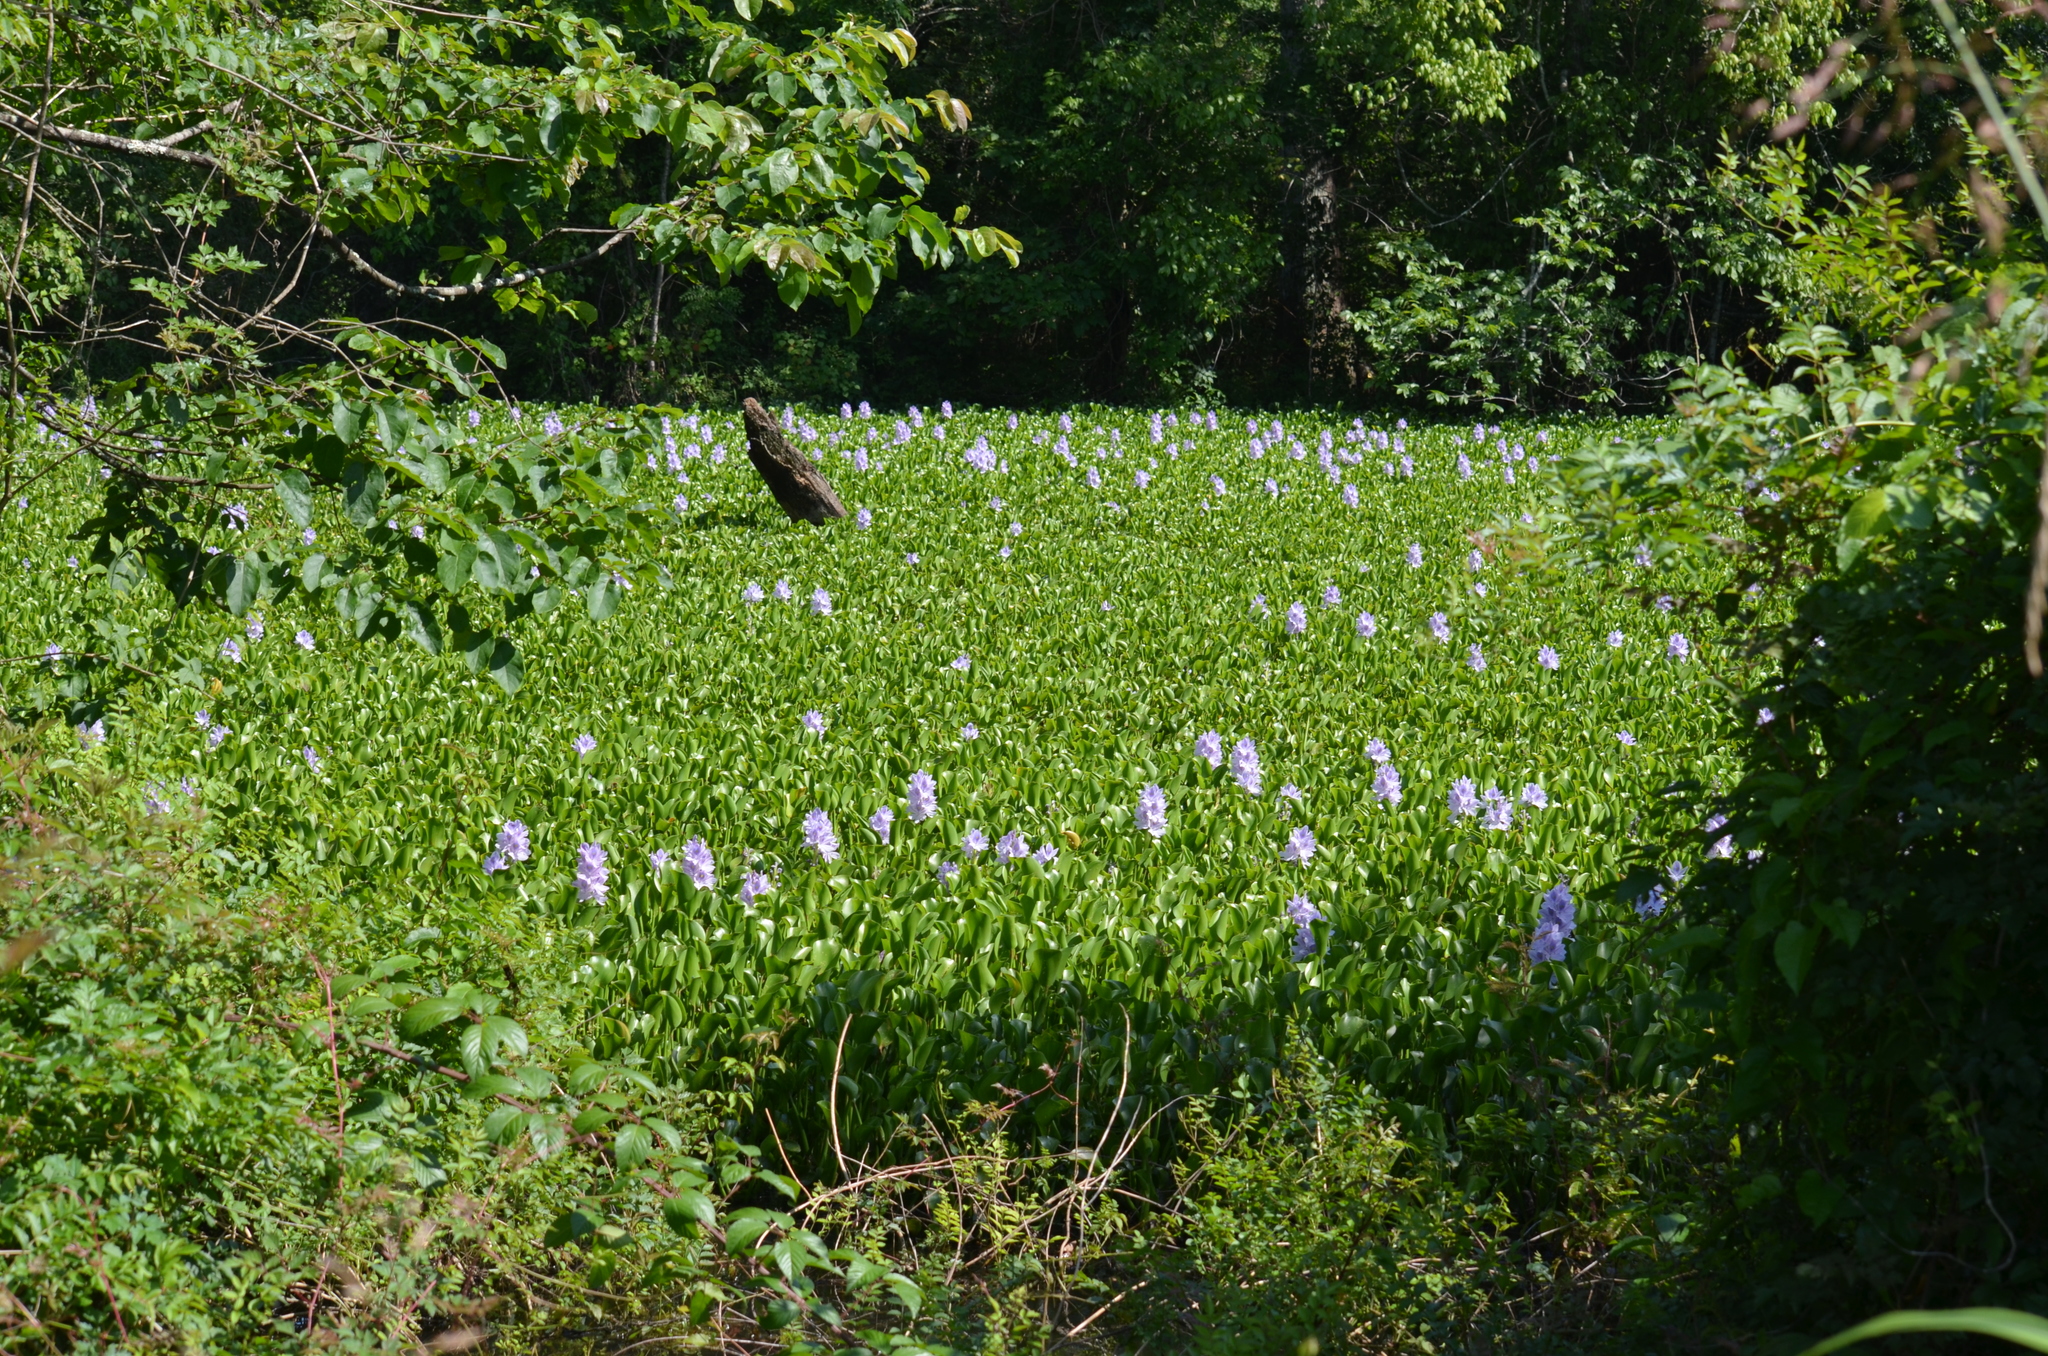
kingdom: Plantae
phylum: Tracheophyta
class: Liliopsida
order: Commelinales
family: Pontederiaceae
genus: Pontederia
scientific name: Pontederia crassipes
